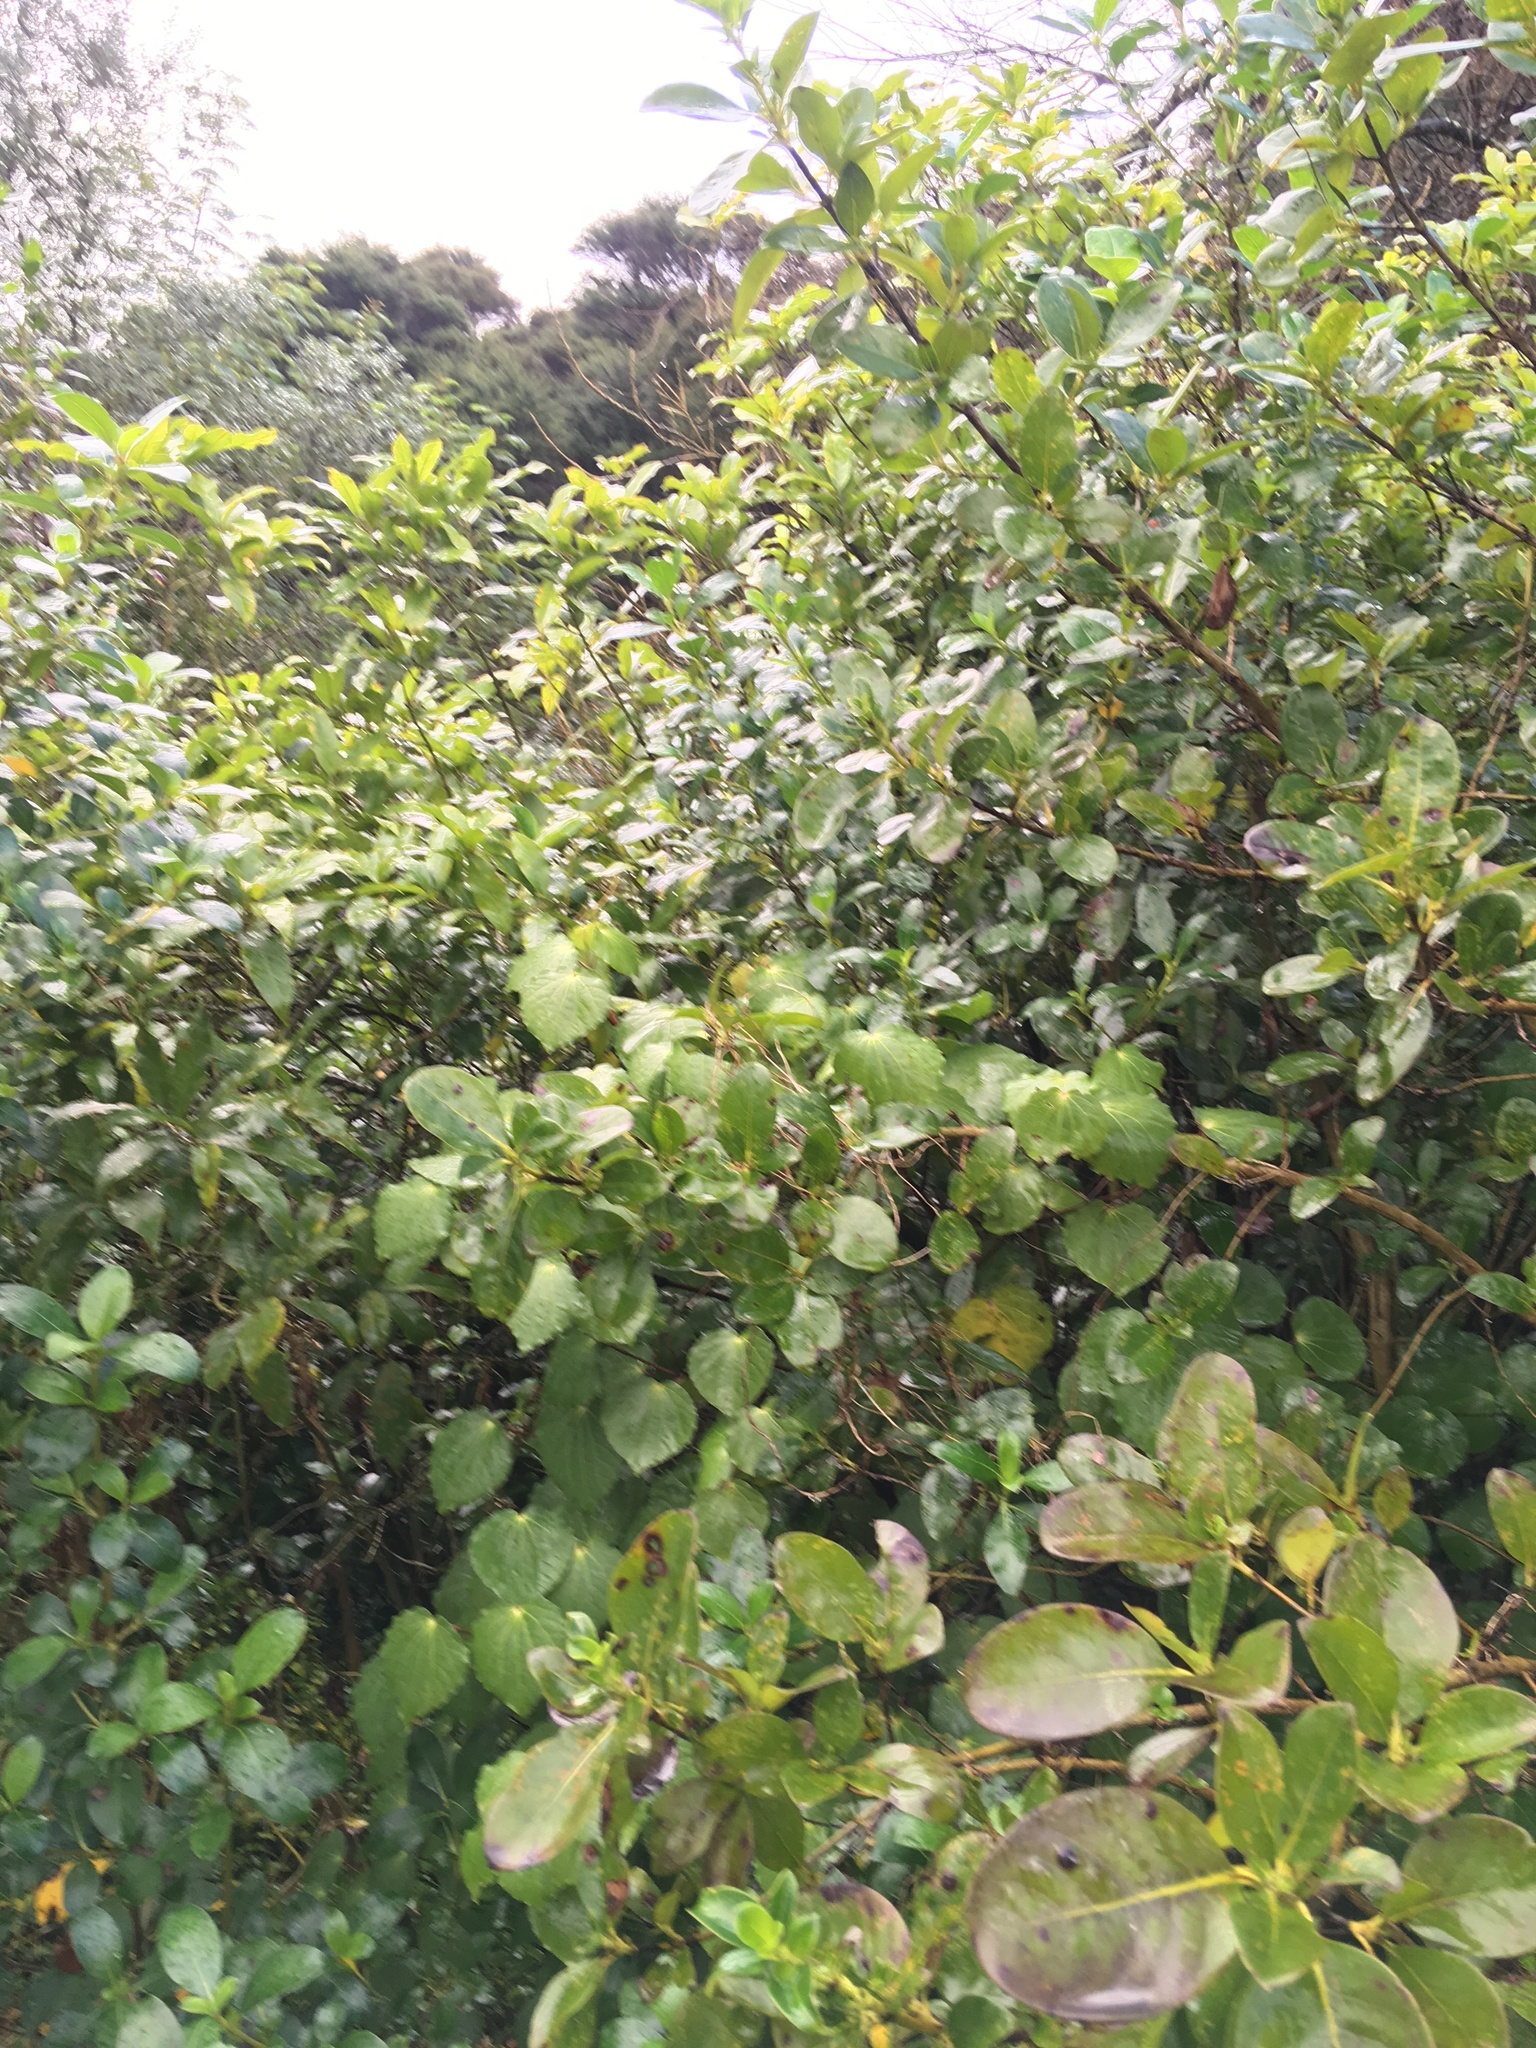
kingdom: Plantae
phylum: Tracheophyta
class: Magnoliopsida
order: Piperales
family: Piperaceae
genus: Macropiper
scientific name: Macropiper excelsum
